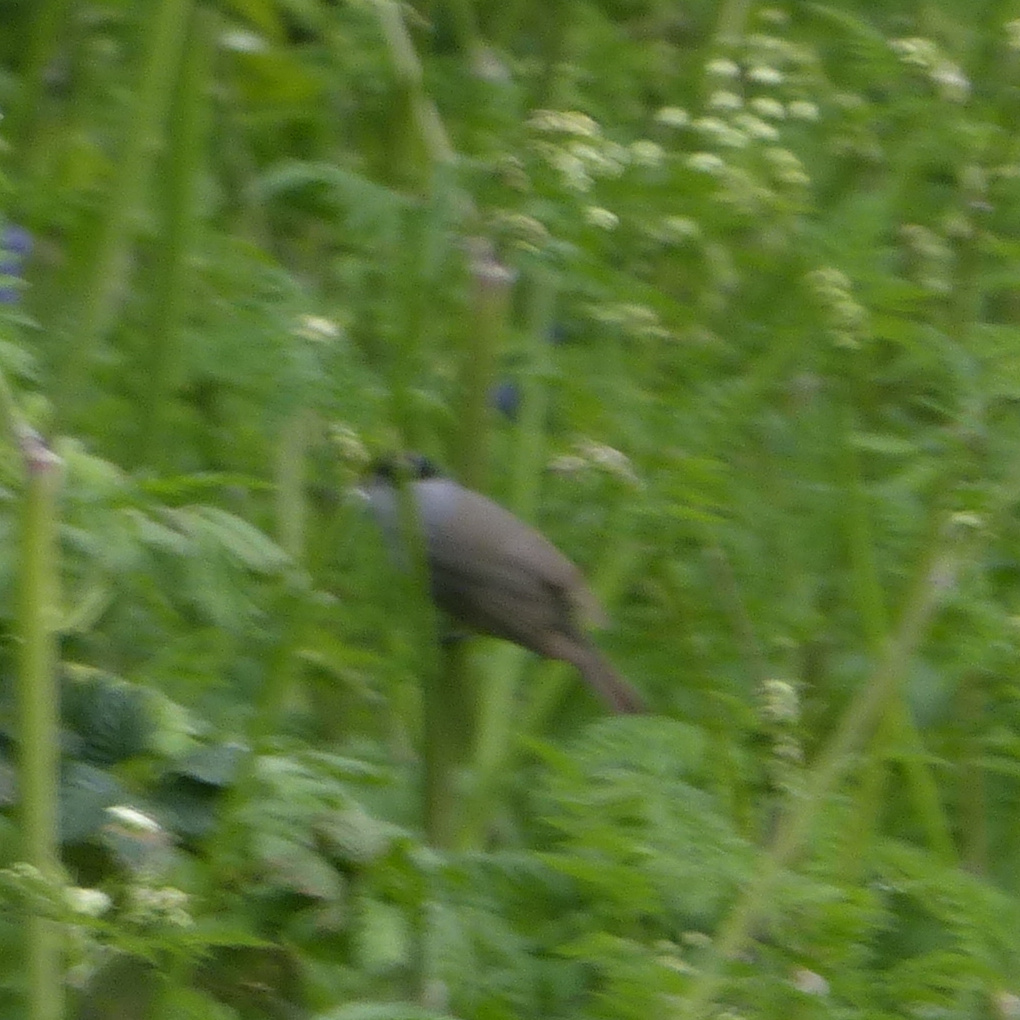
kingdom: Animalia
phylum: Chordata
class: Aves
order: Passeriformes
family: Sylviidae
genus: Sylvia
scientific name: Sylvia atricapilla
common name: Eurasian blackcap
